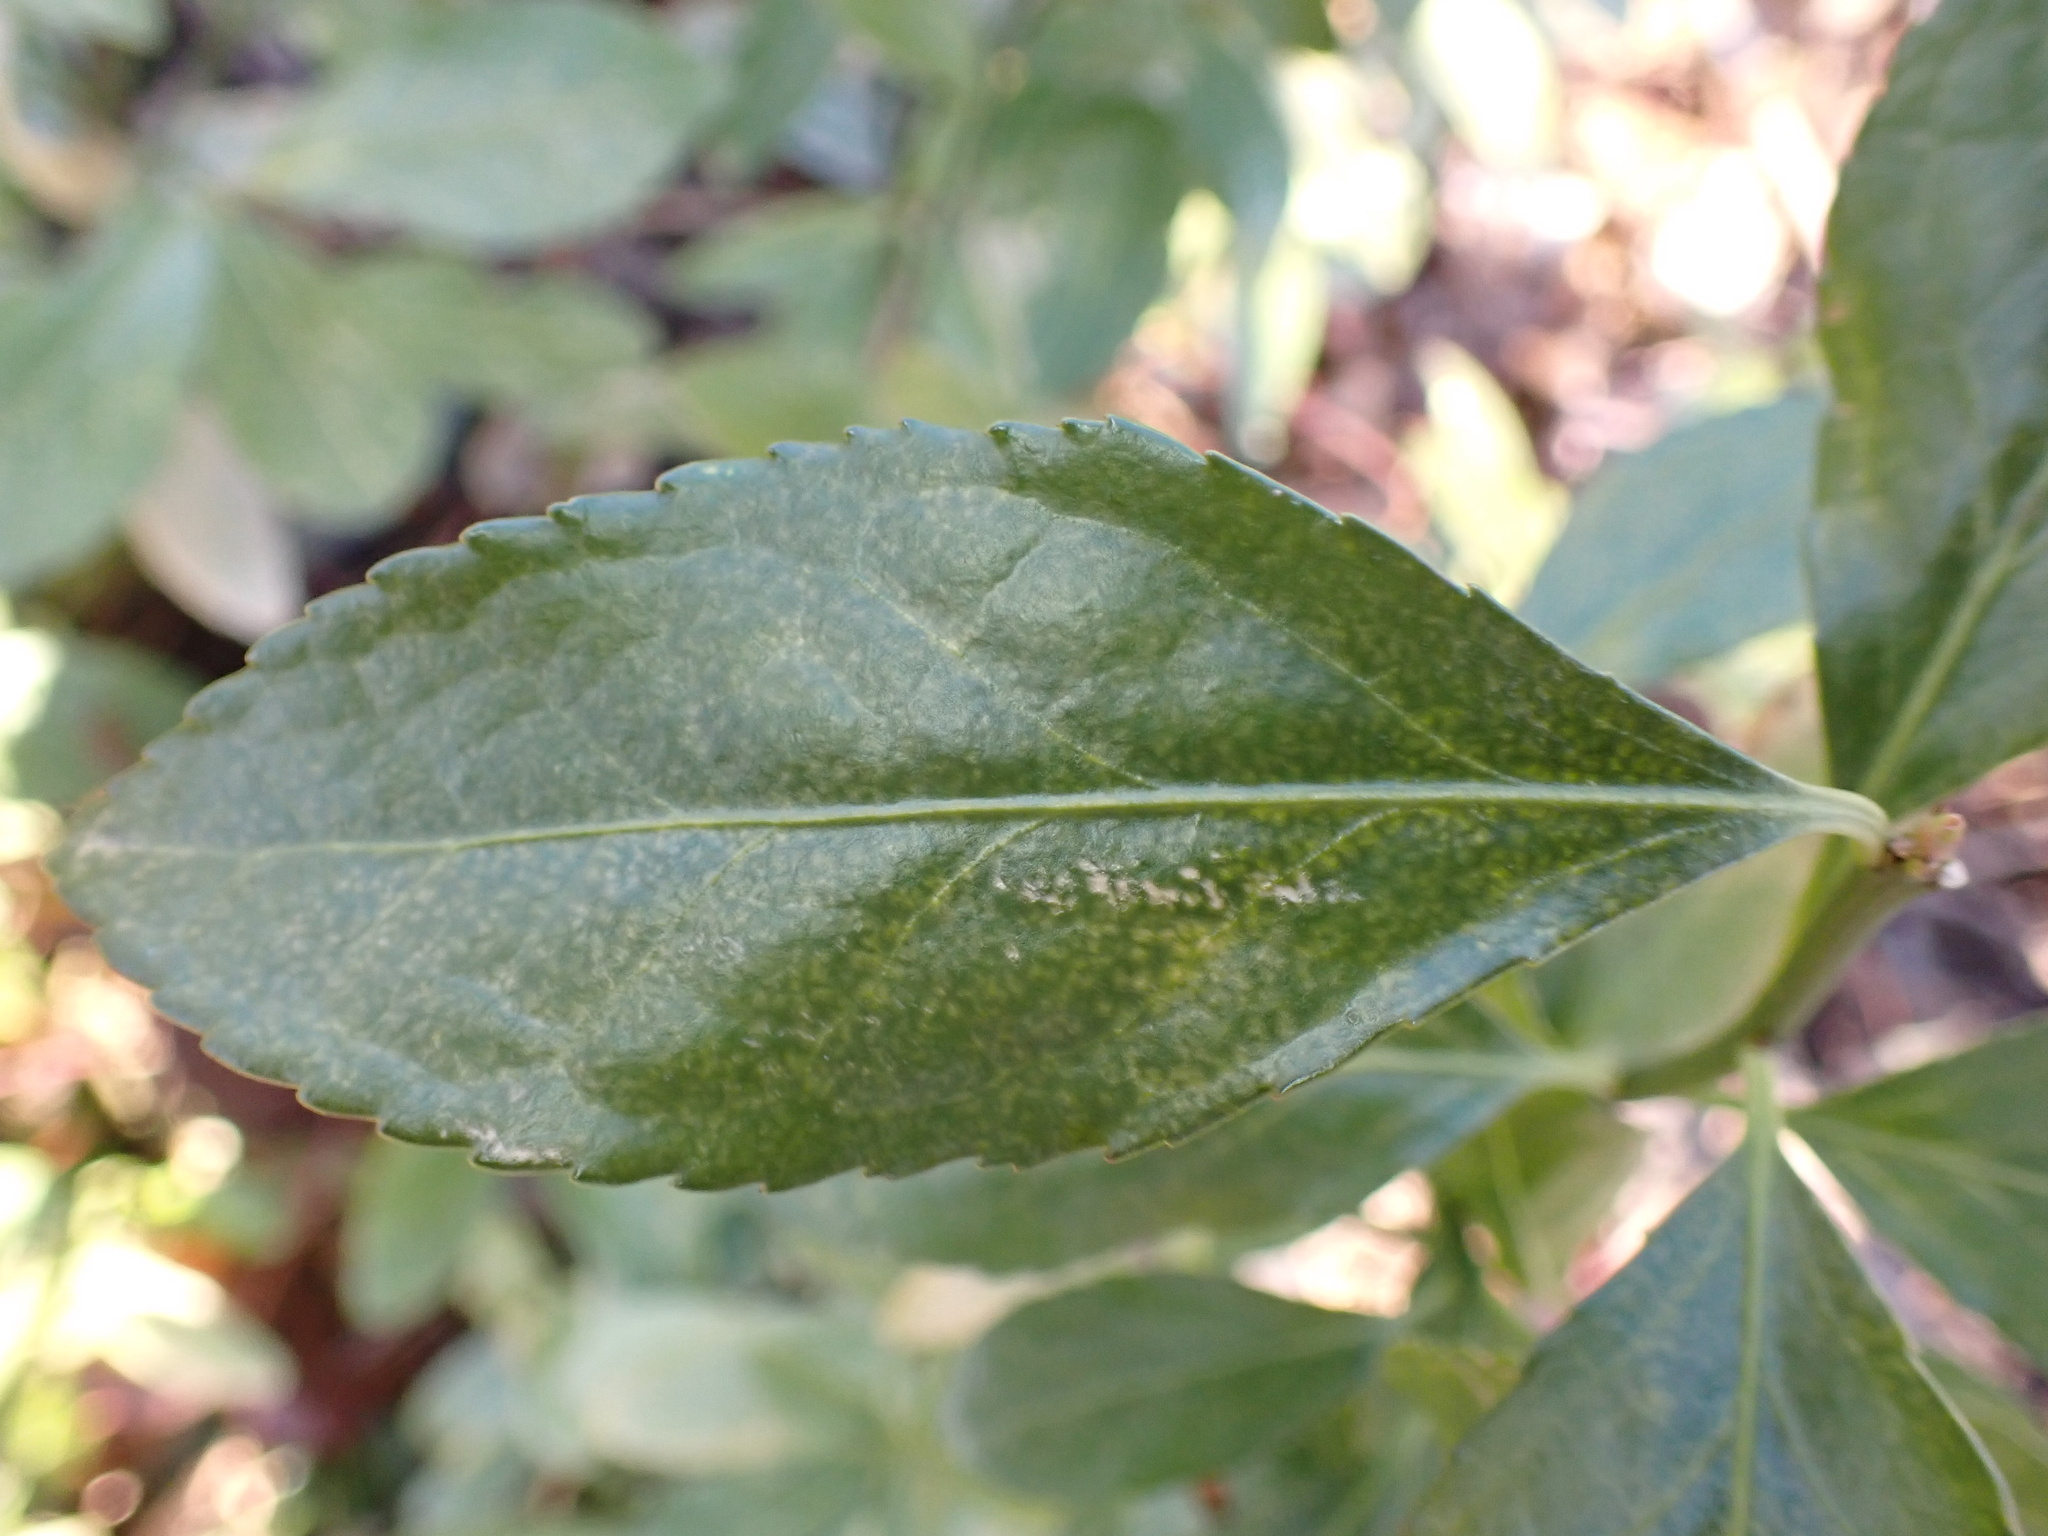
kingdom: Plantae
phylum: Tracheophyta
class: Magnoliopsida
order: Celastrales
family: Celastraceae
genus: Euonymus
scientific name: Euonymus japonicus
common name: Japanese spindletree
